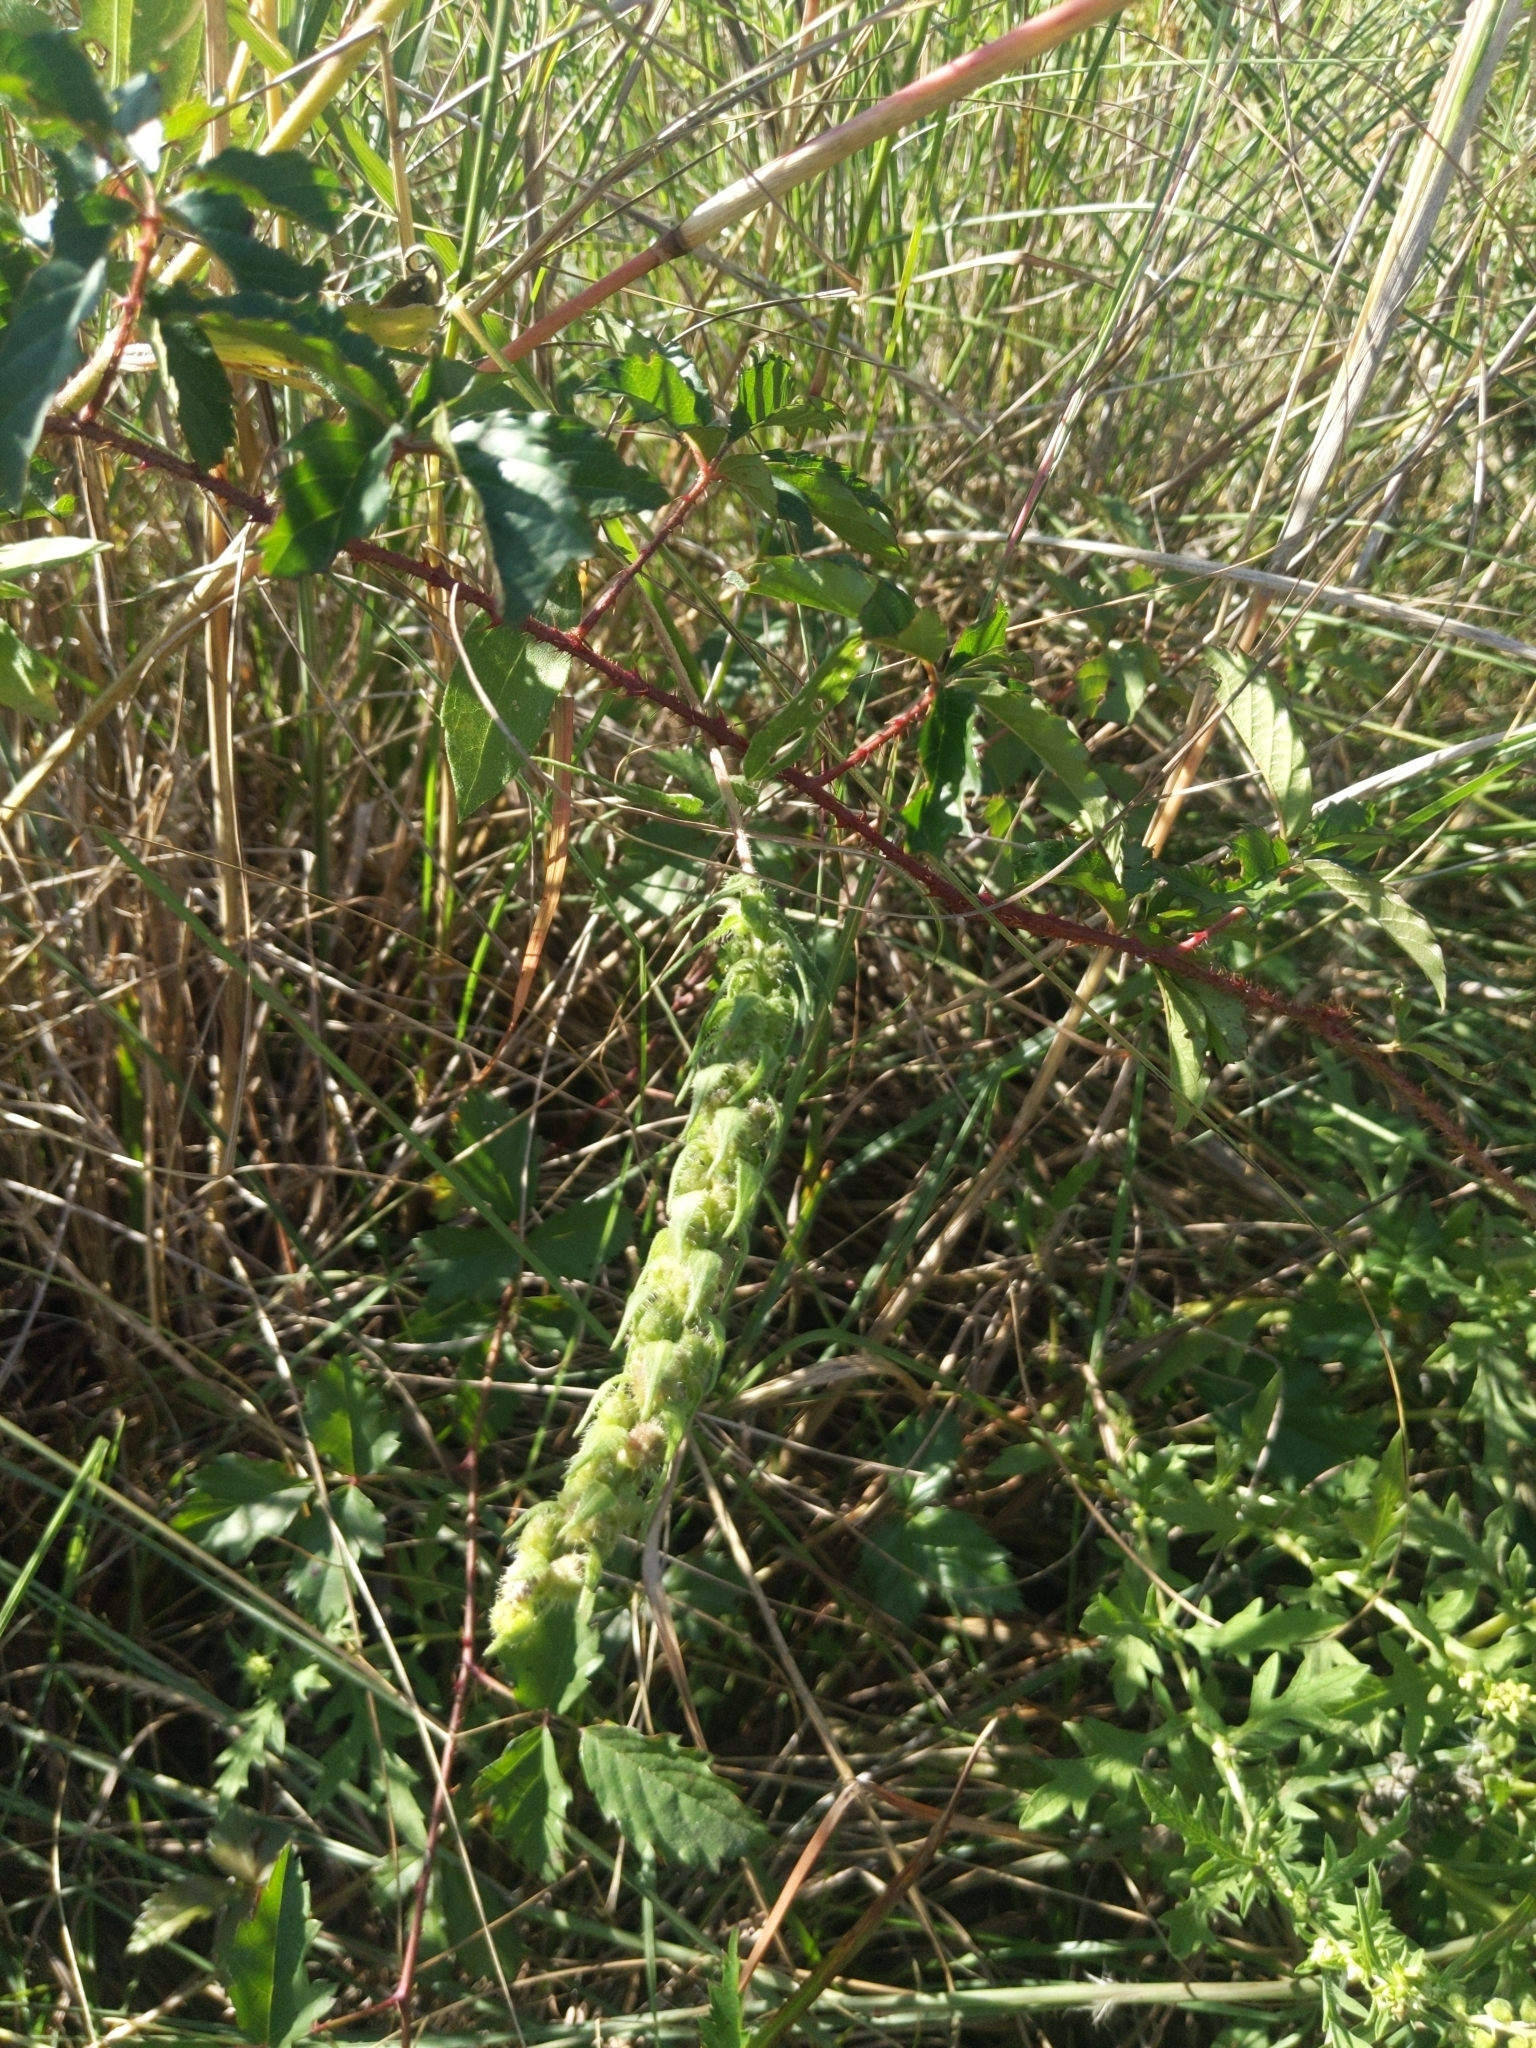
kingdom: Plantae
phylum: Tracheophyta
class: Magnoliopsida
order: Asterales
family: Asteraceae
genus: Iva
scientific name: Iva annua
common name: Marsh-elder
